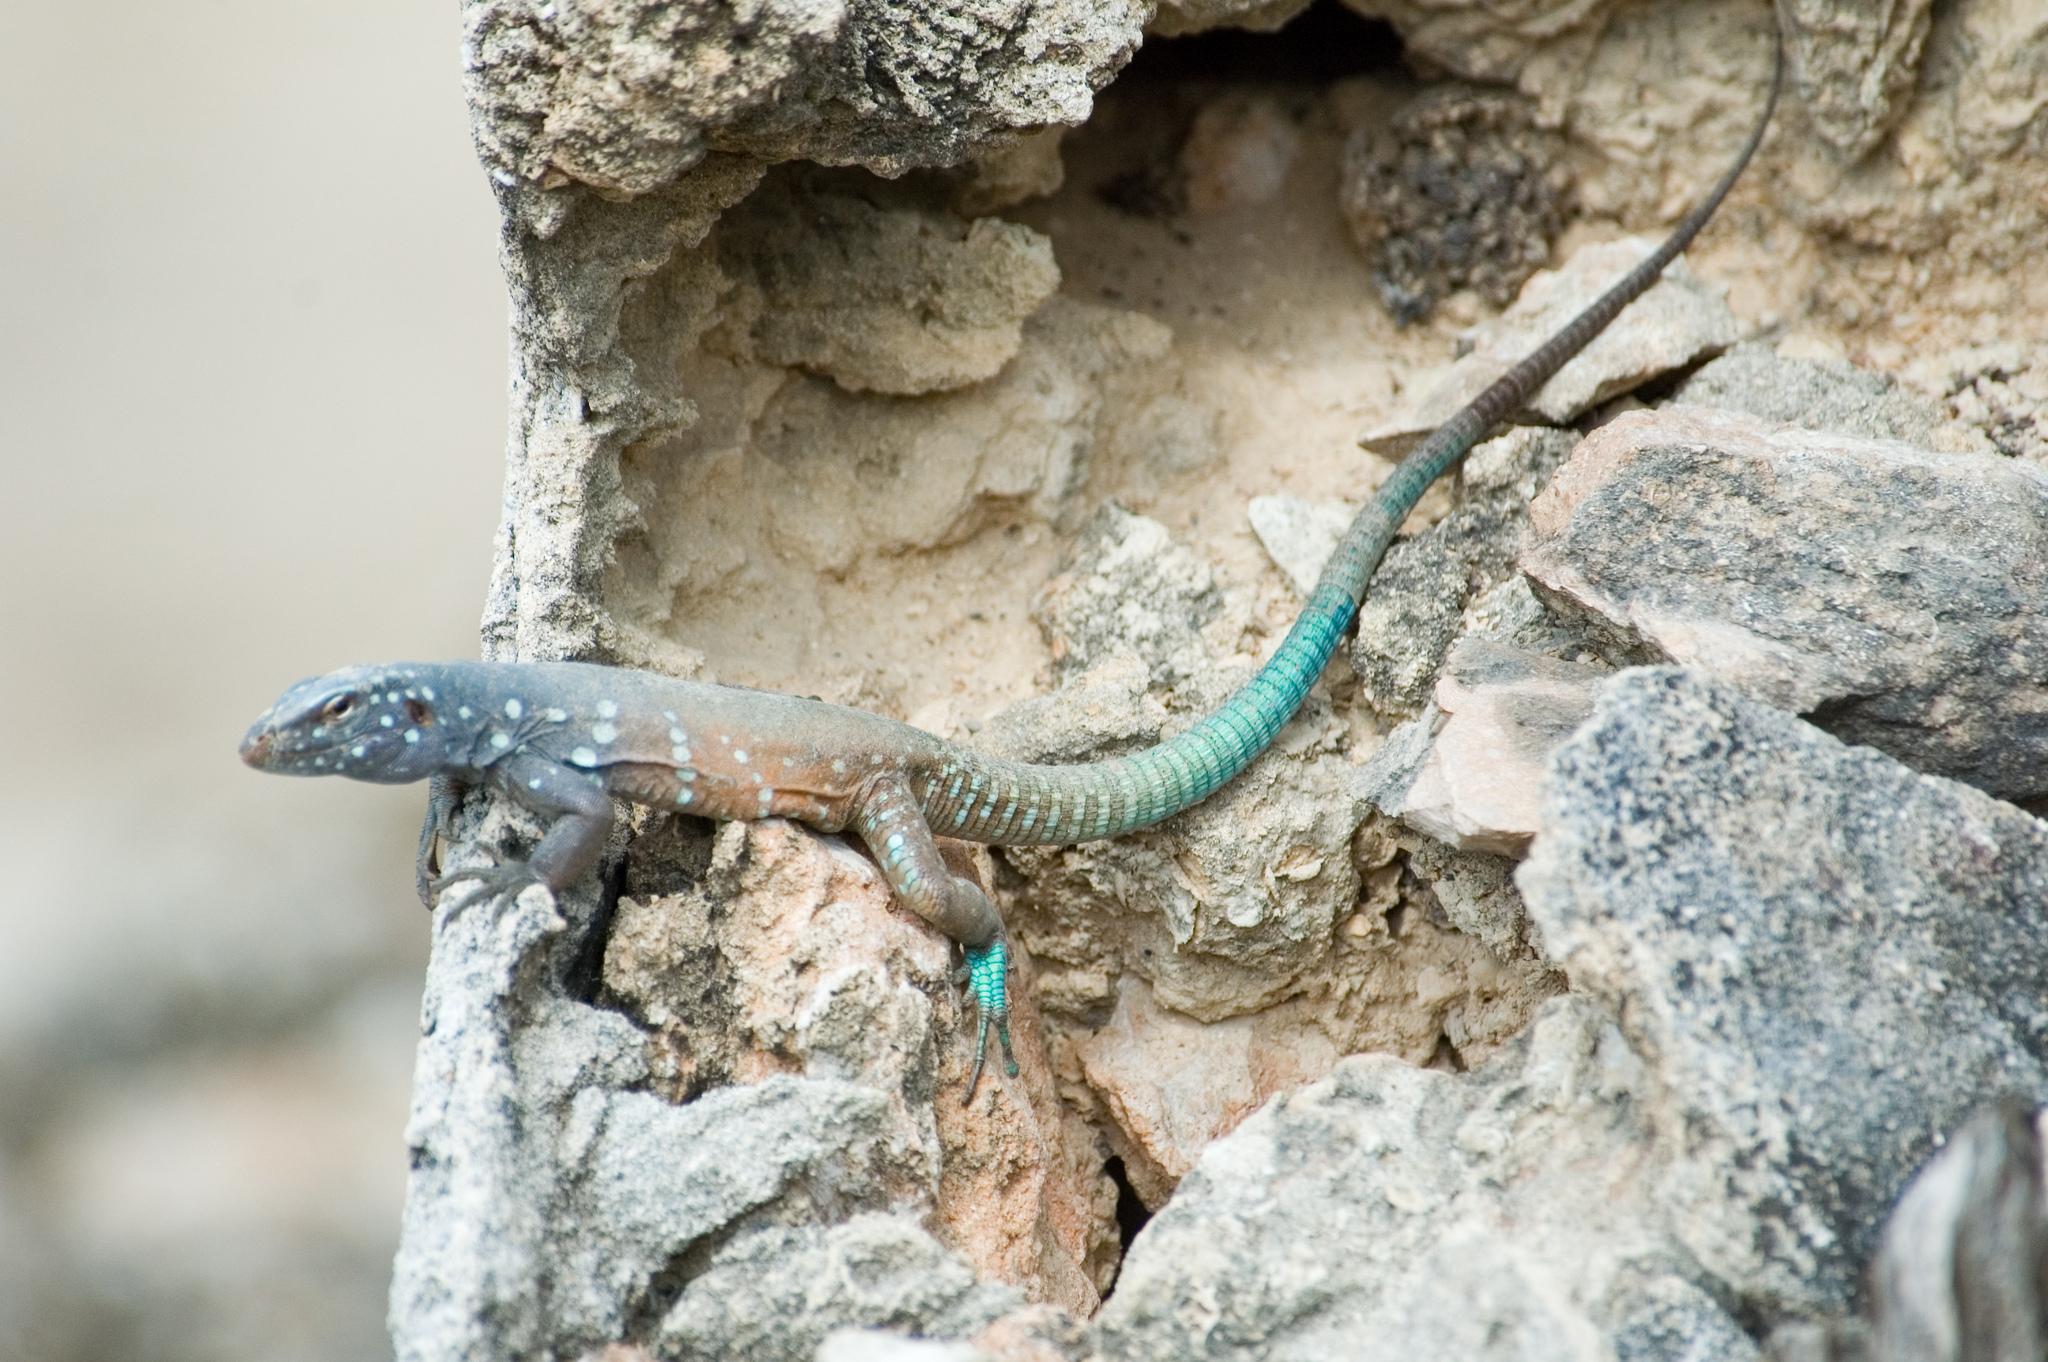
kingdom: Animalia
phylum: Chordata
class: Squamata
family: Teiidae
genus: Cnemidophorus
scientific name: Cnemidophorus ruthveni
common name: Bonaire whiptail
